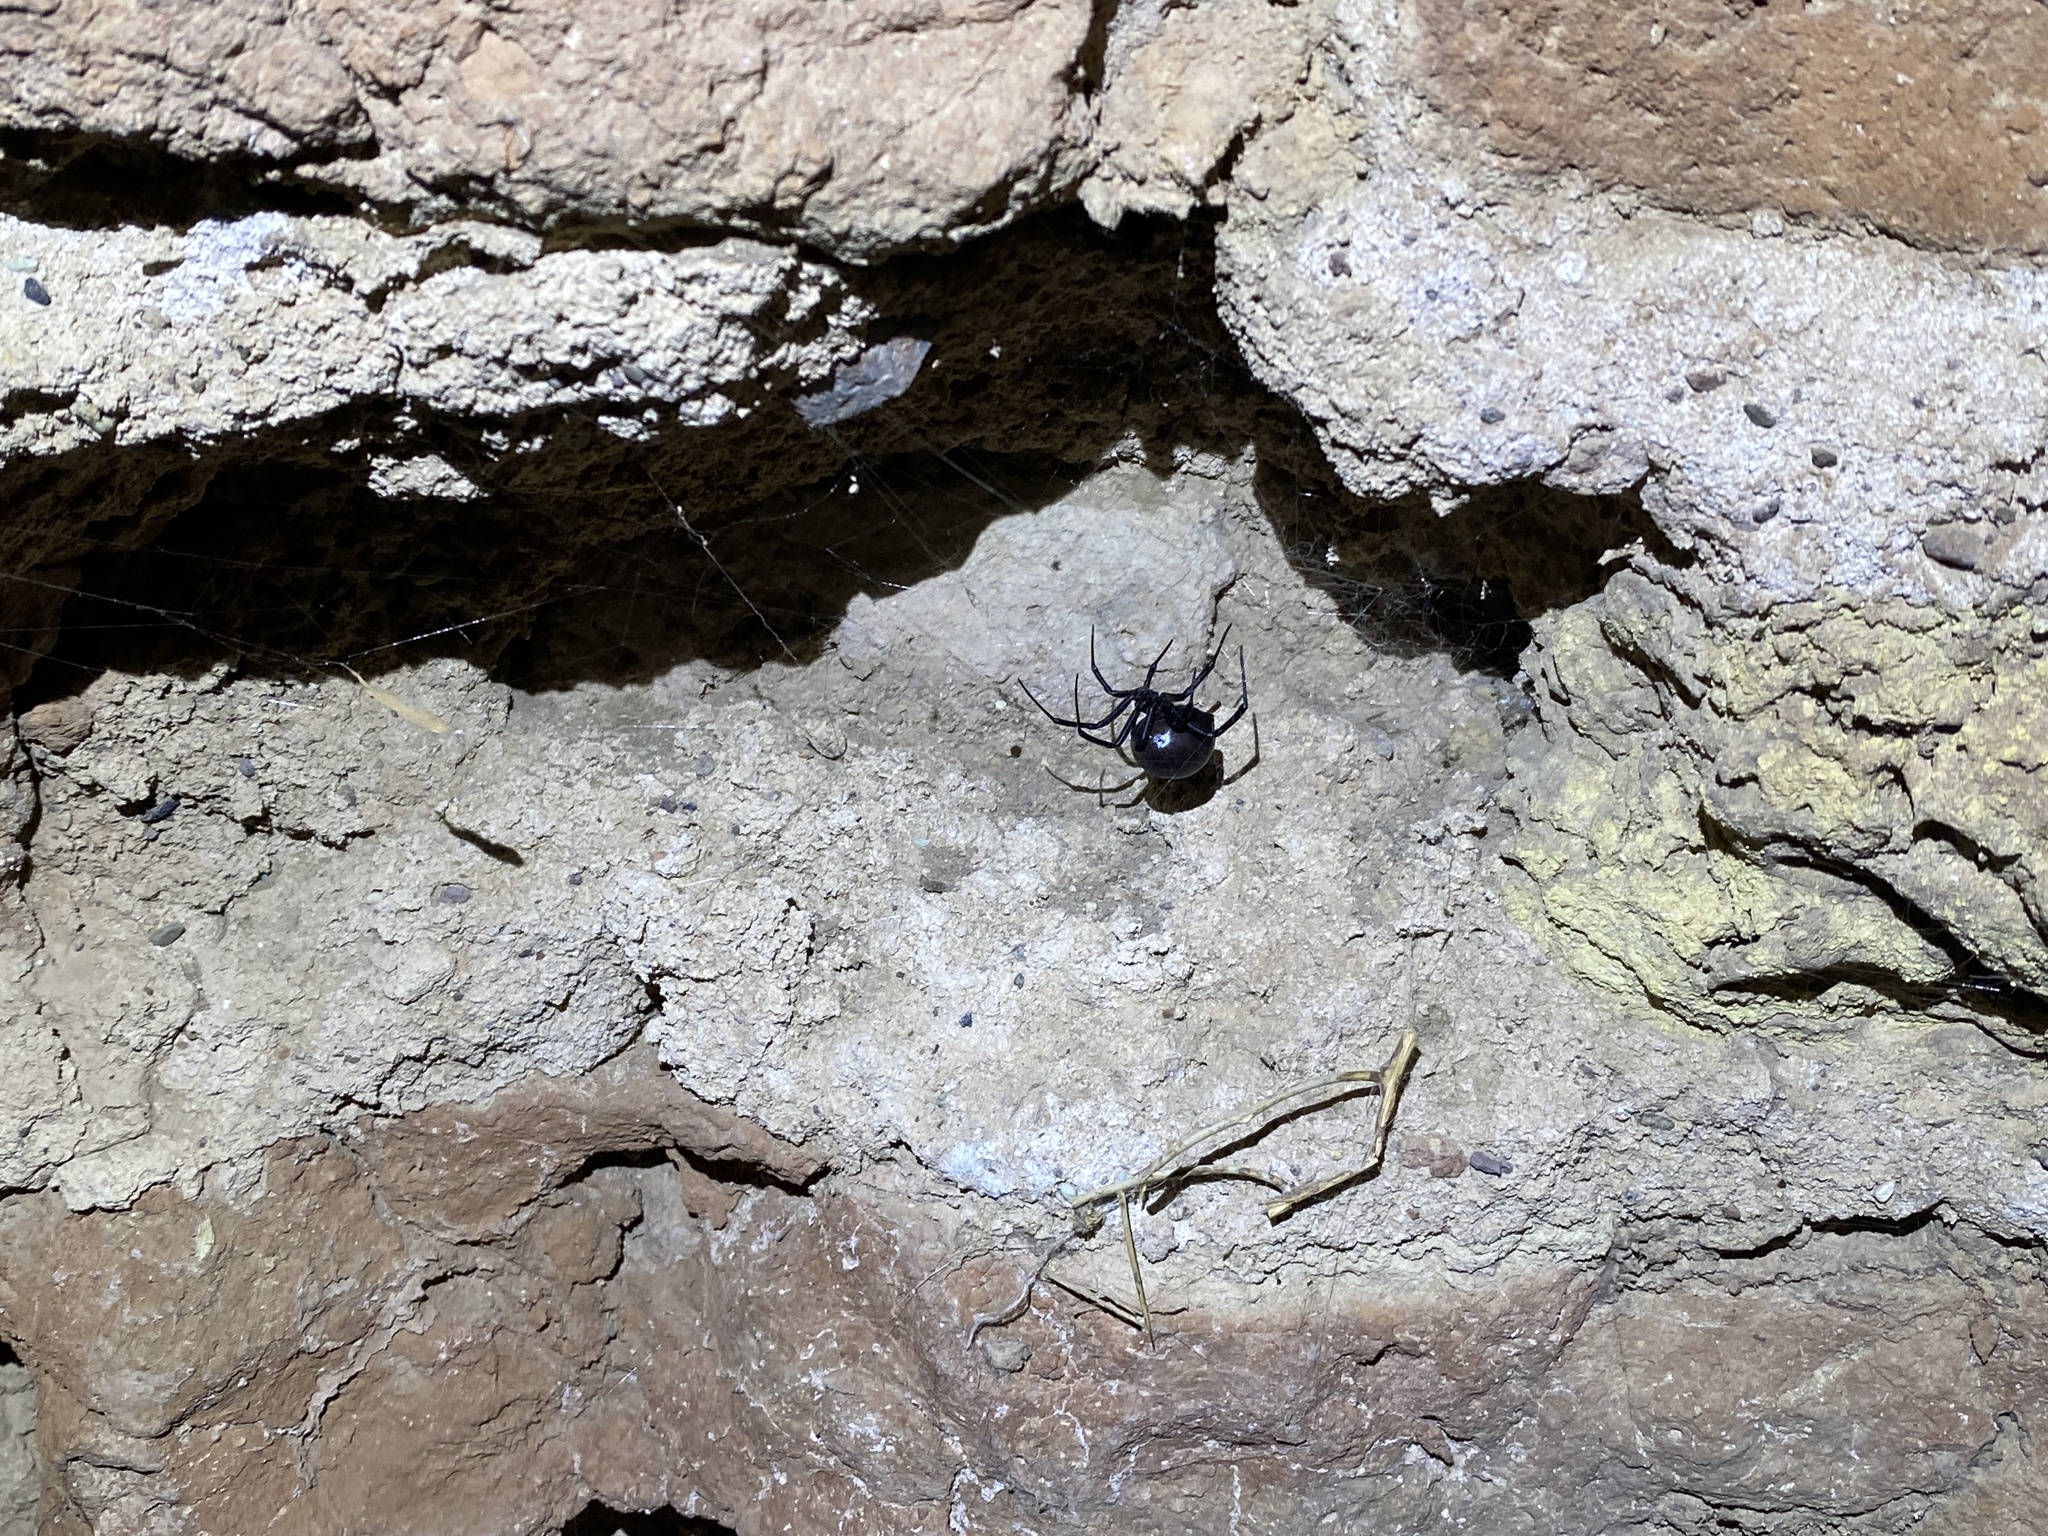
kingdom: Animalia
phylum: Arthropoda
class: Arachnida
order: Araneae
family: Theridiidae
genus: Latrodectus
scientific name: Latrodectus tredecimguttatus
